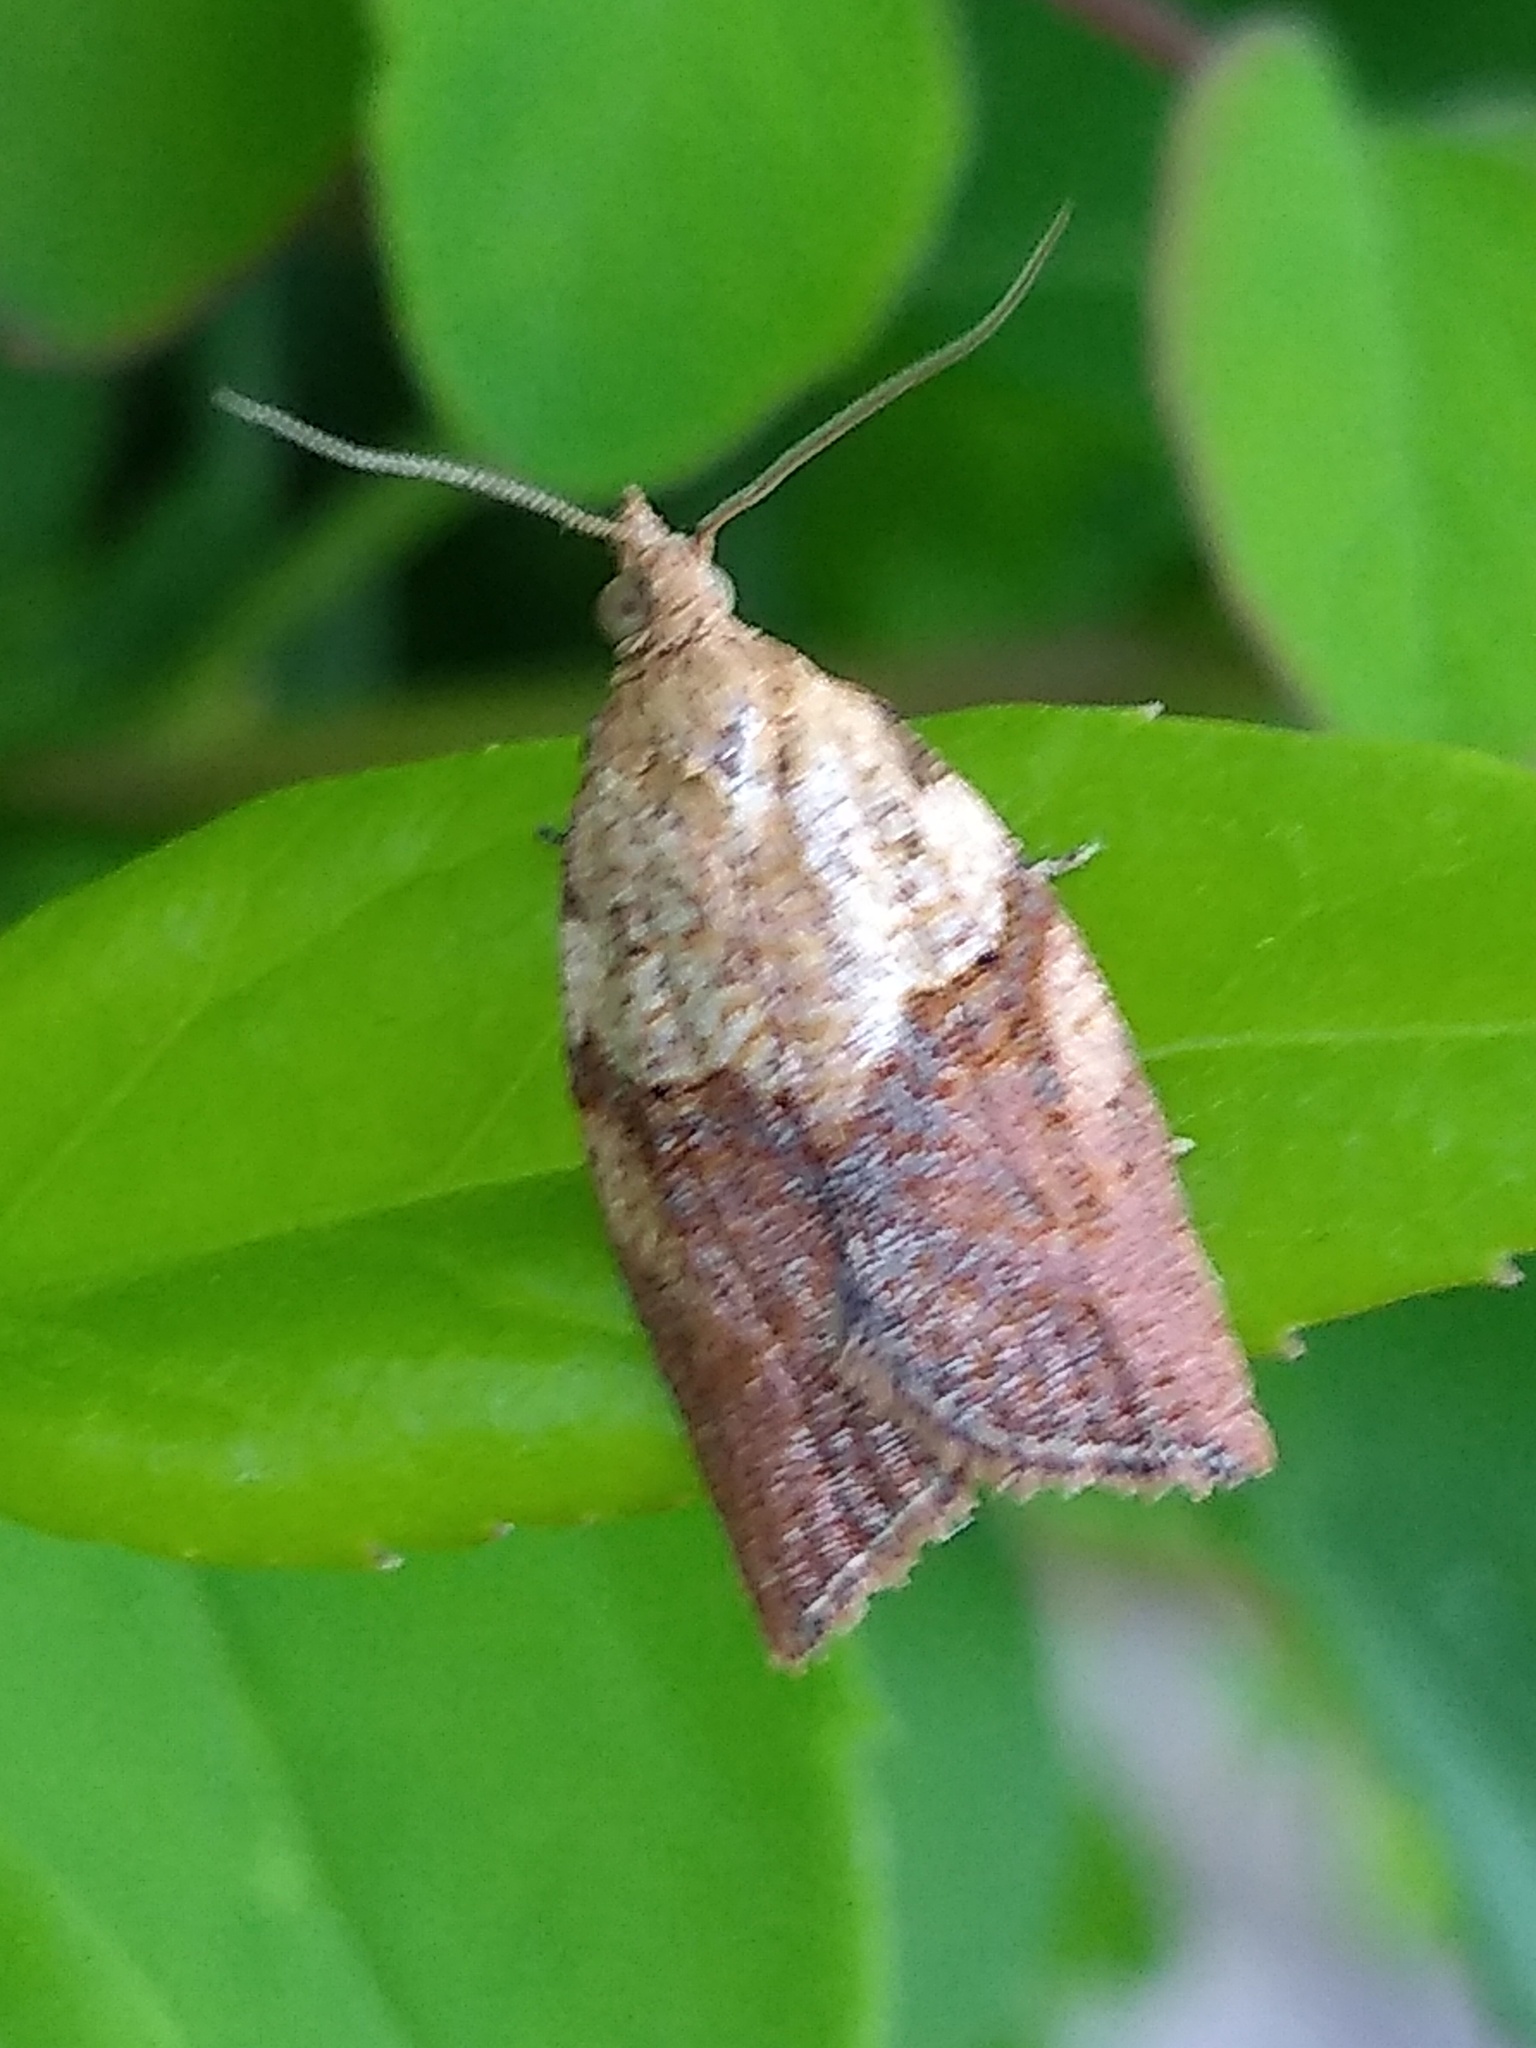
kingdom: Animalia
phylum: Arthropoda
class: Insecta
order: Lepidoptera
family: Tortricidae
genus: Epiphyas
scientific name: Epiphyas postvittana
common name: Light brown apple moth
